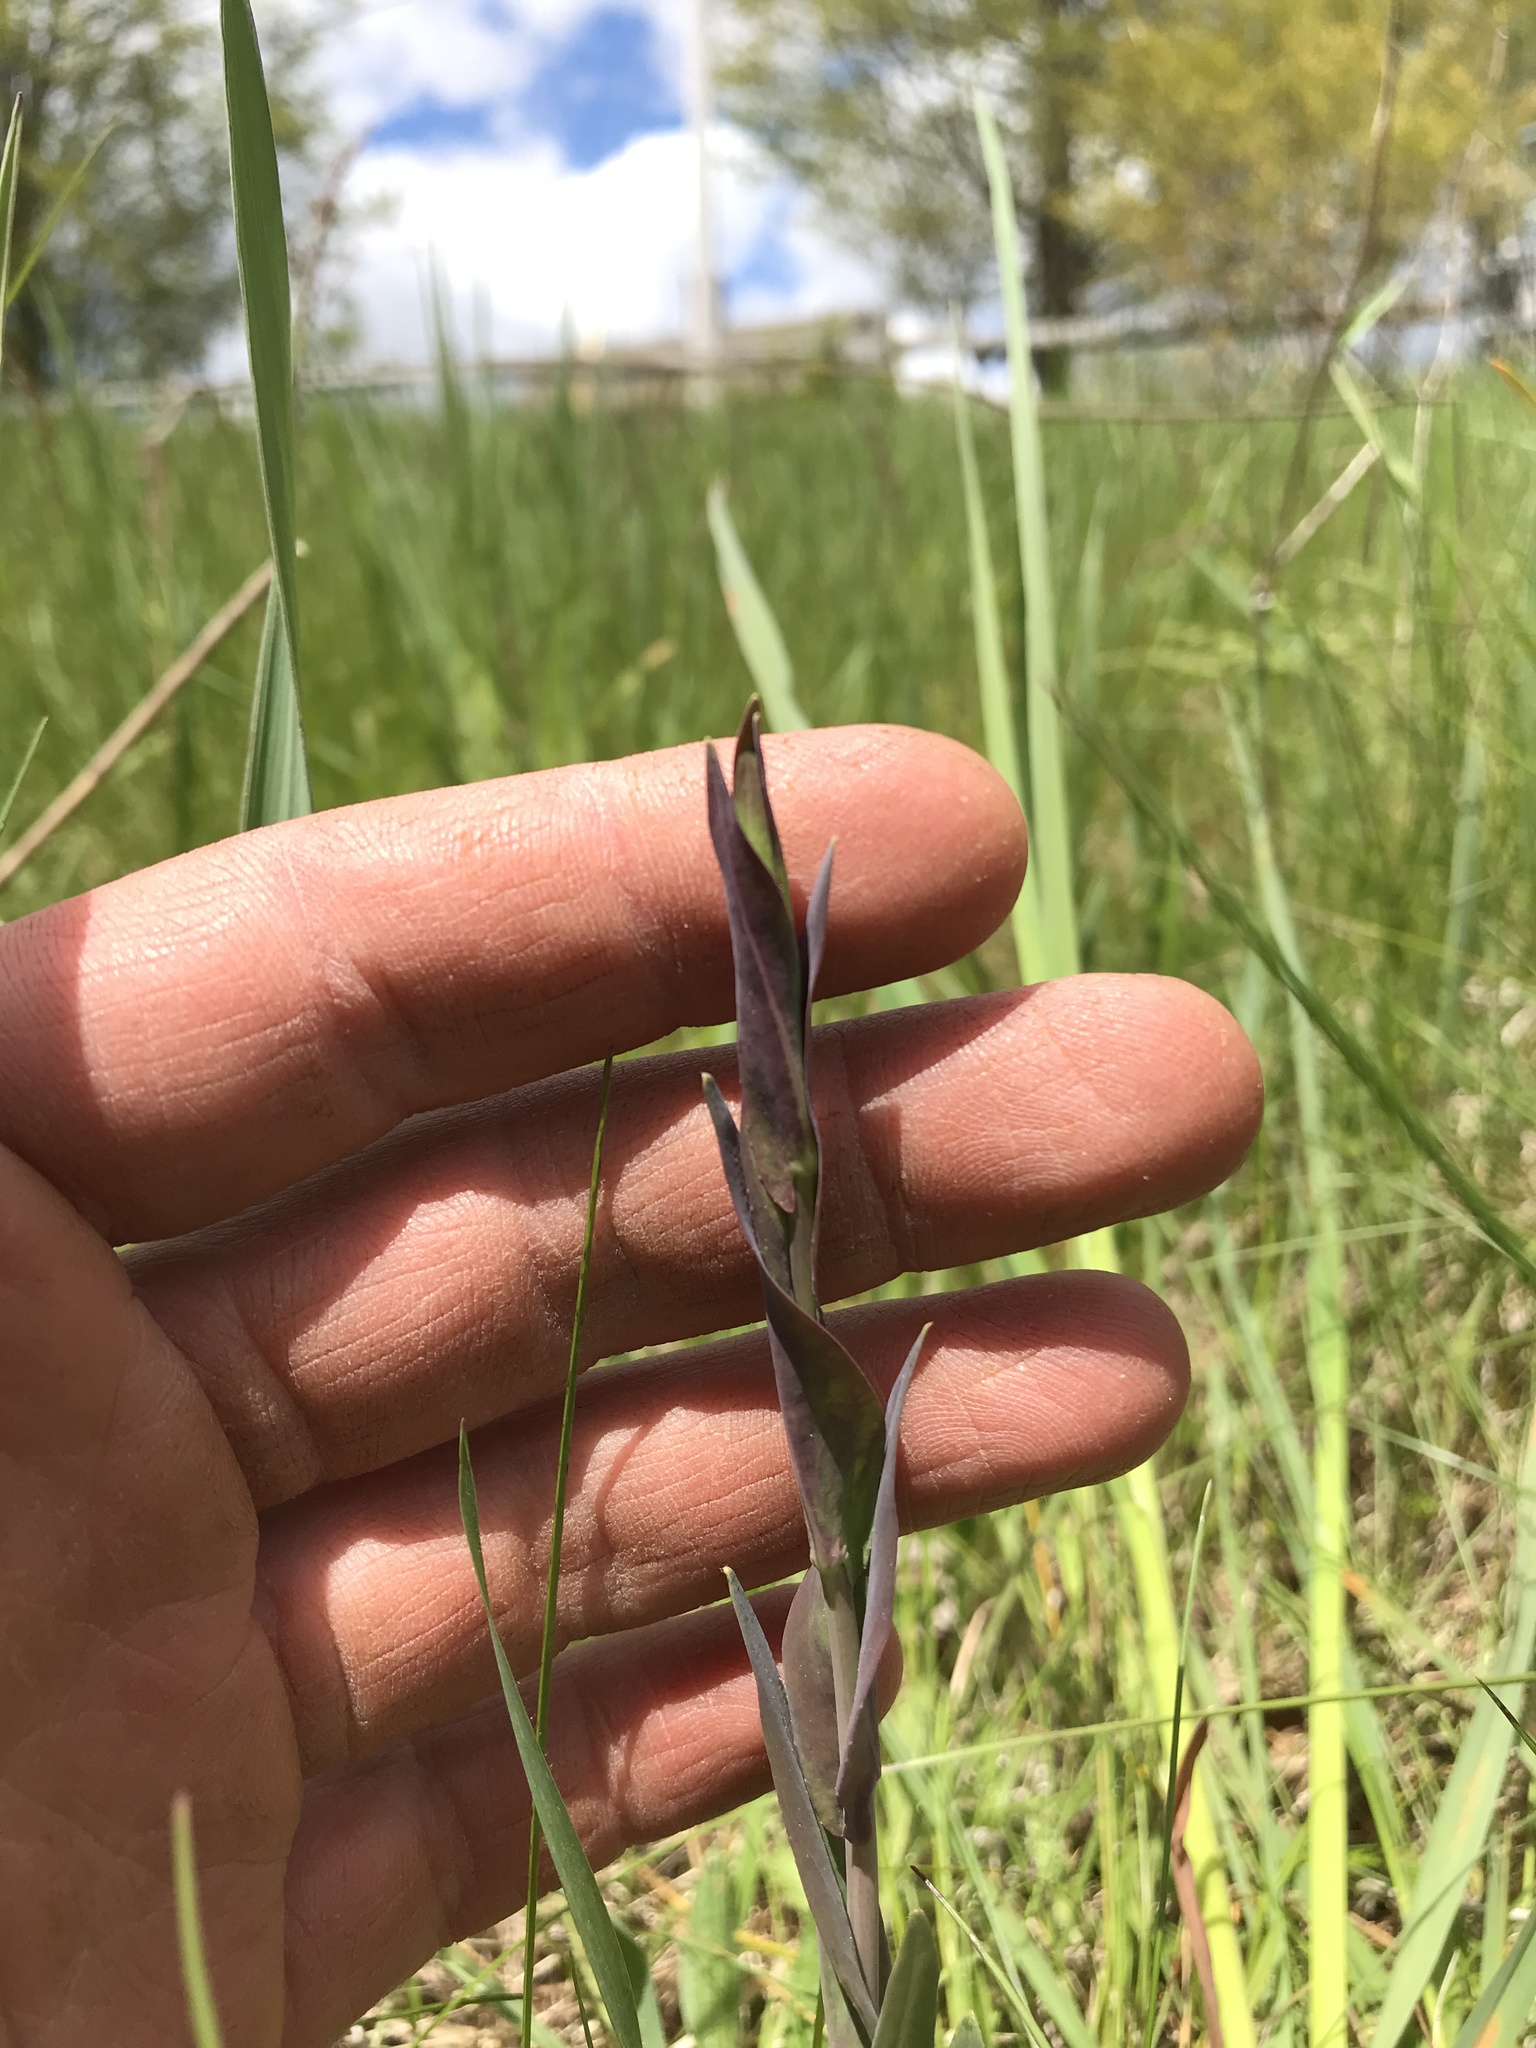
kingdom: Plantae
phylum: Tracheophyta
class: Magnoliopsida
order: Brassicales
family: Brassicaceae
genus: Turritis
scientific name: Turritis glabra
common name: Tower rockcress
